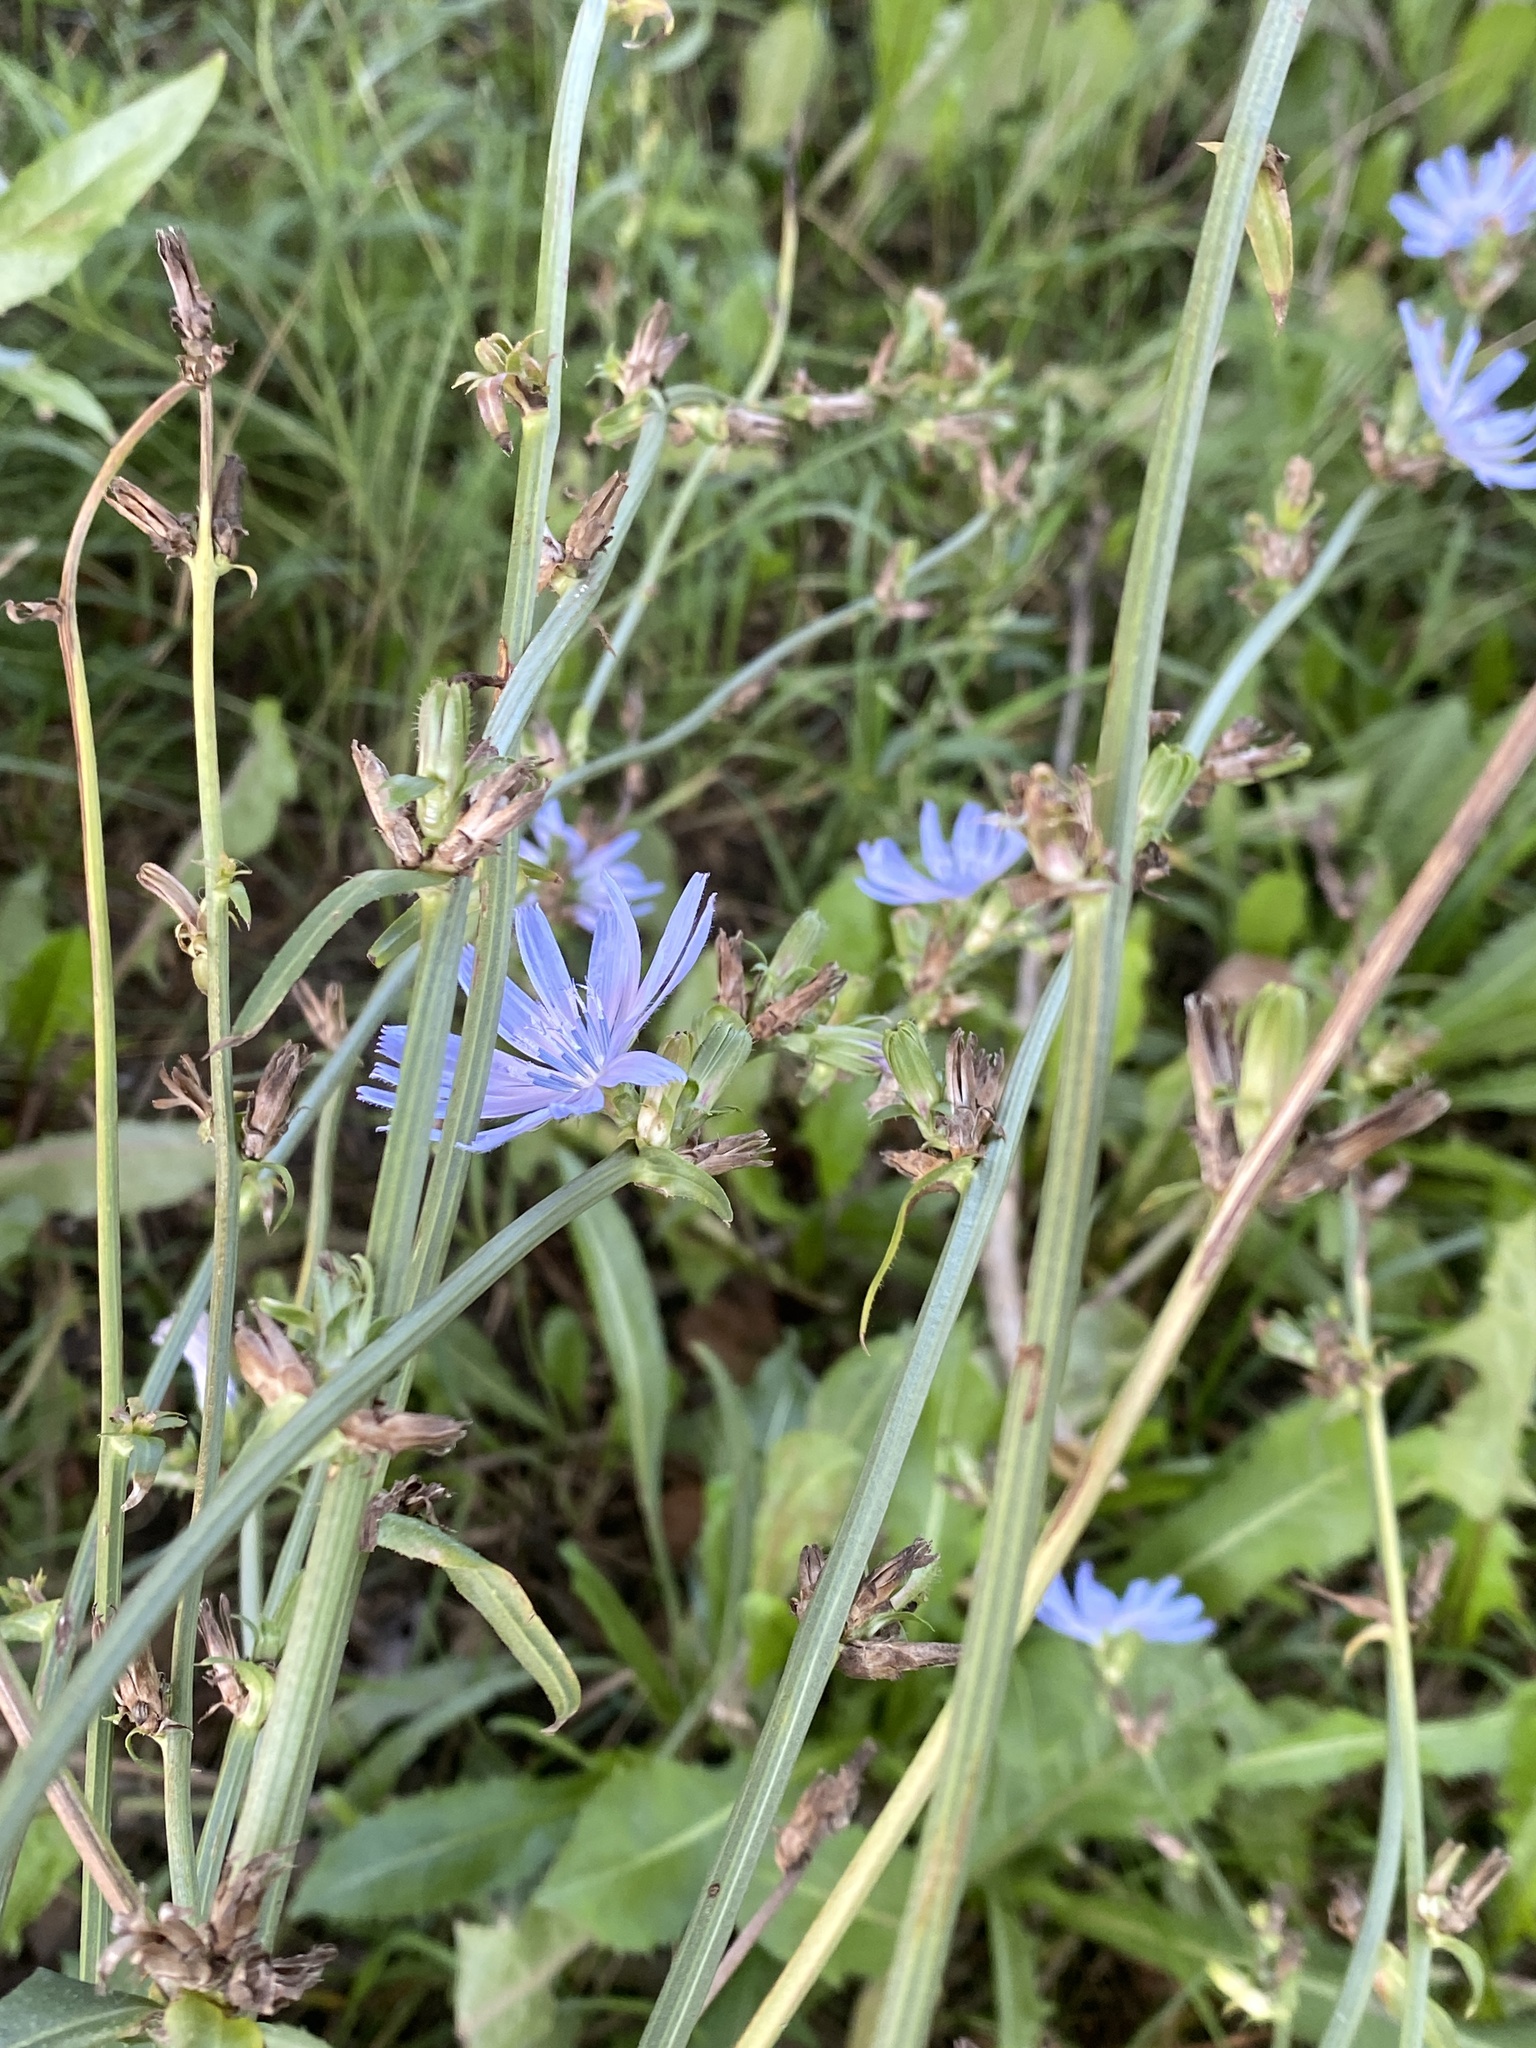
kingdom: Plantae
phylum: Tracheophyta
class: Magnoliopsida
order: Asterales
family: Asteraceae
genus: Cichorium
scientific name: Cichorium intybus
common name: Chicory
